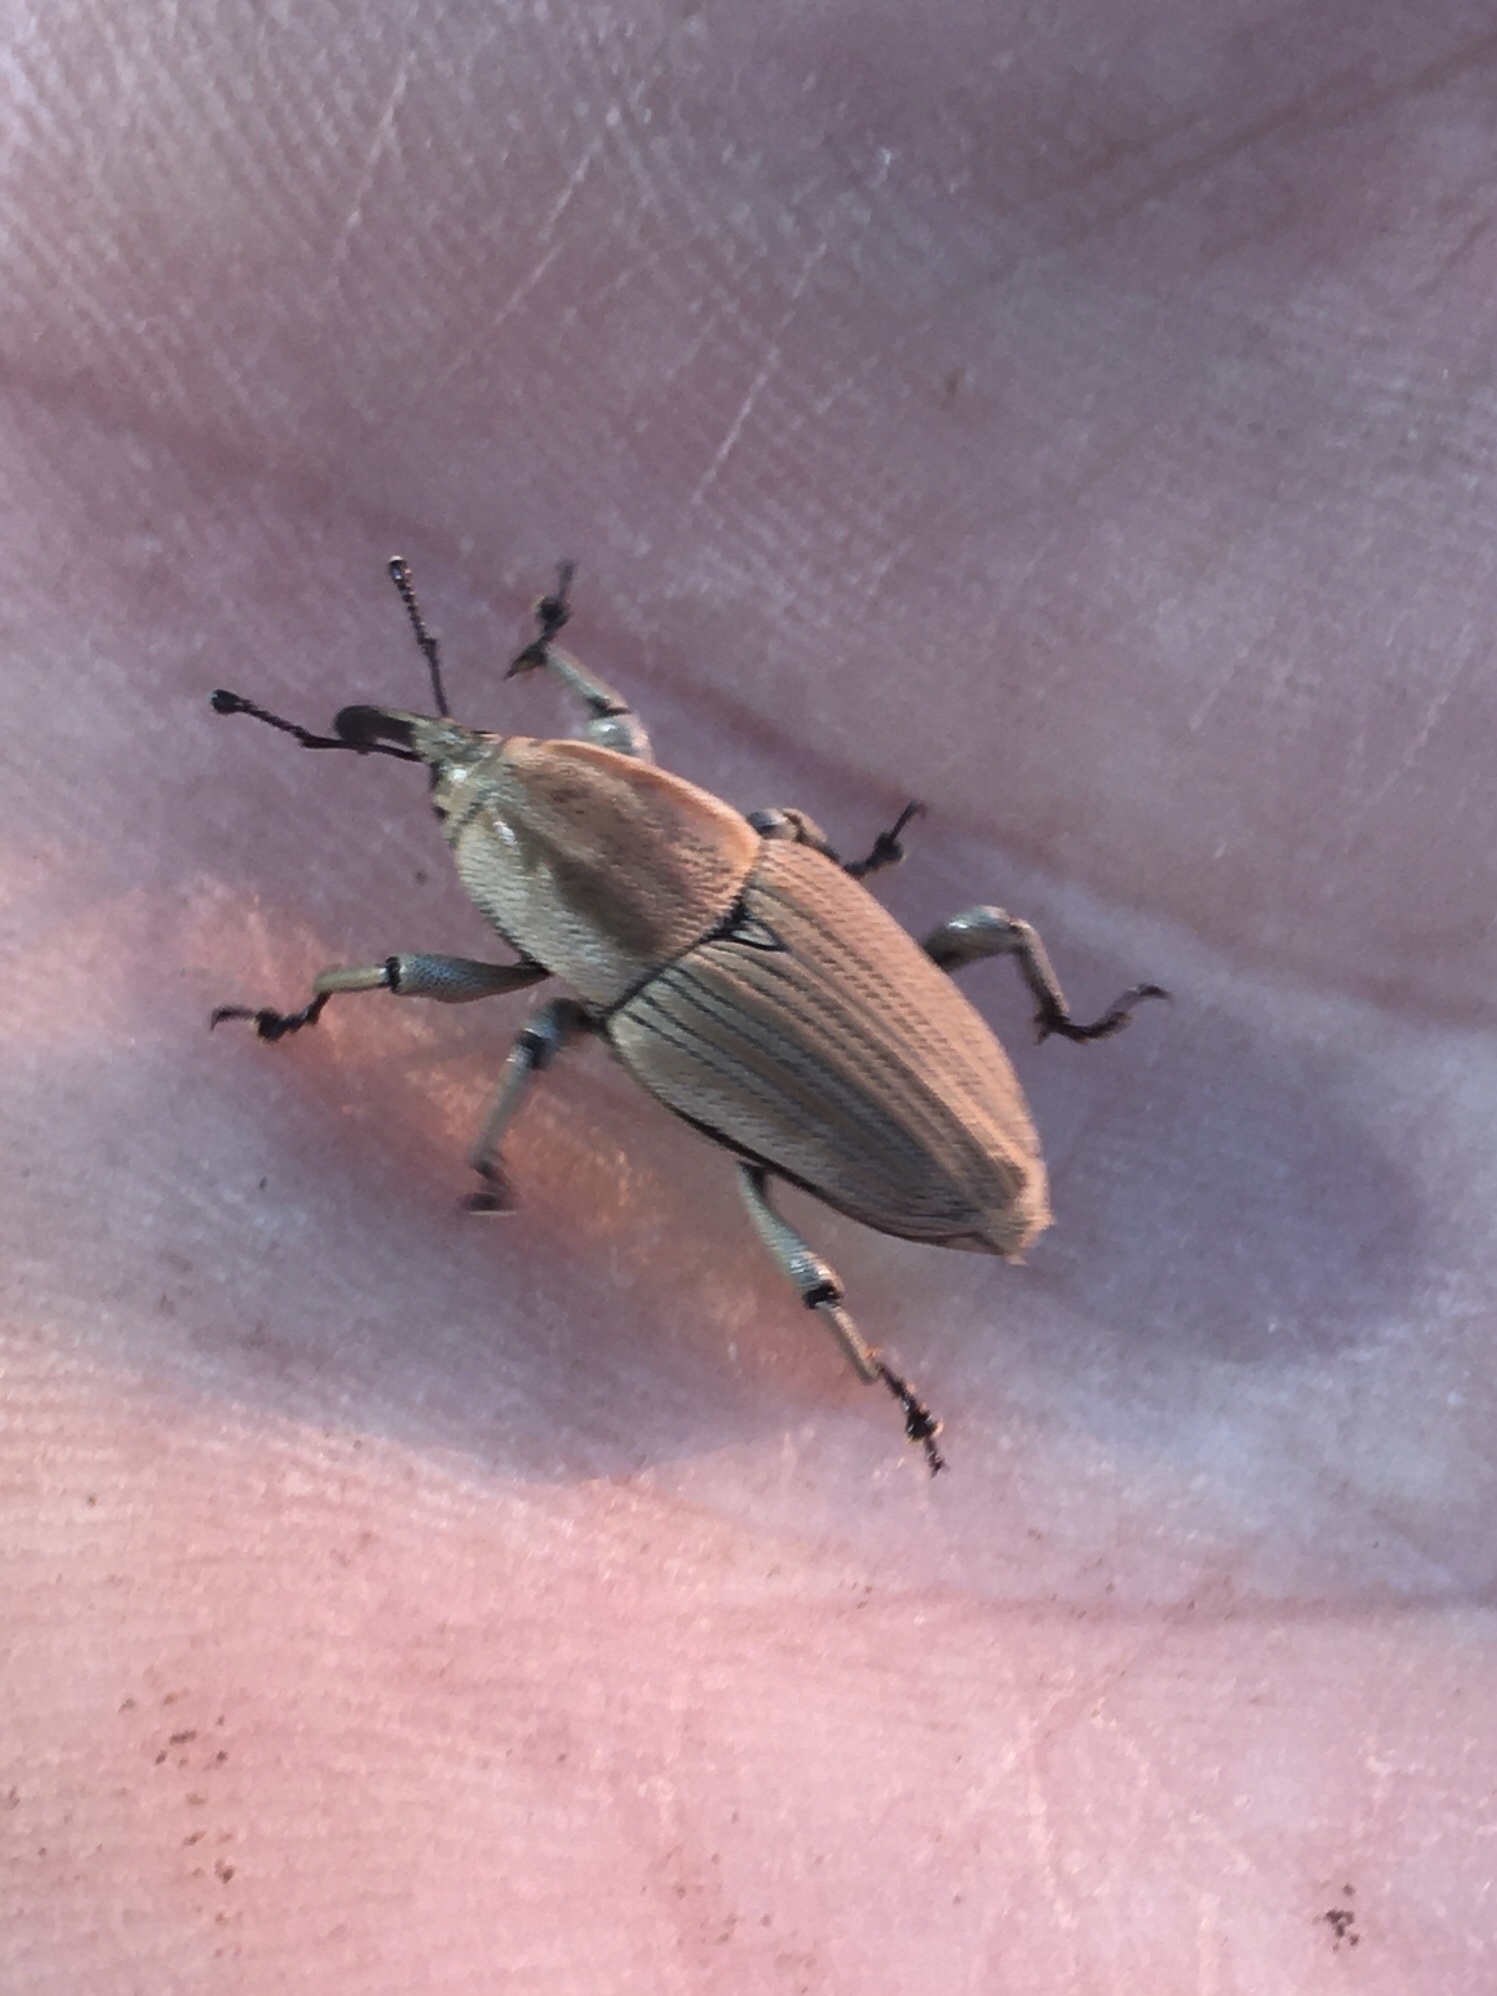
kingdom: Animalia
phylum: Arthropoda
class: Insecta
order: Coleoptera
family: Dryophthoridae
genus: Sphenophorus
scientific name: Sphenophorus aequalis
